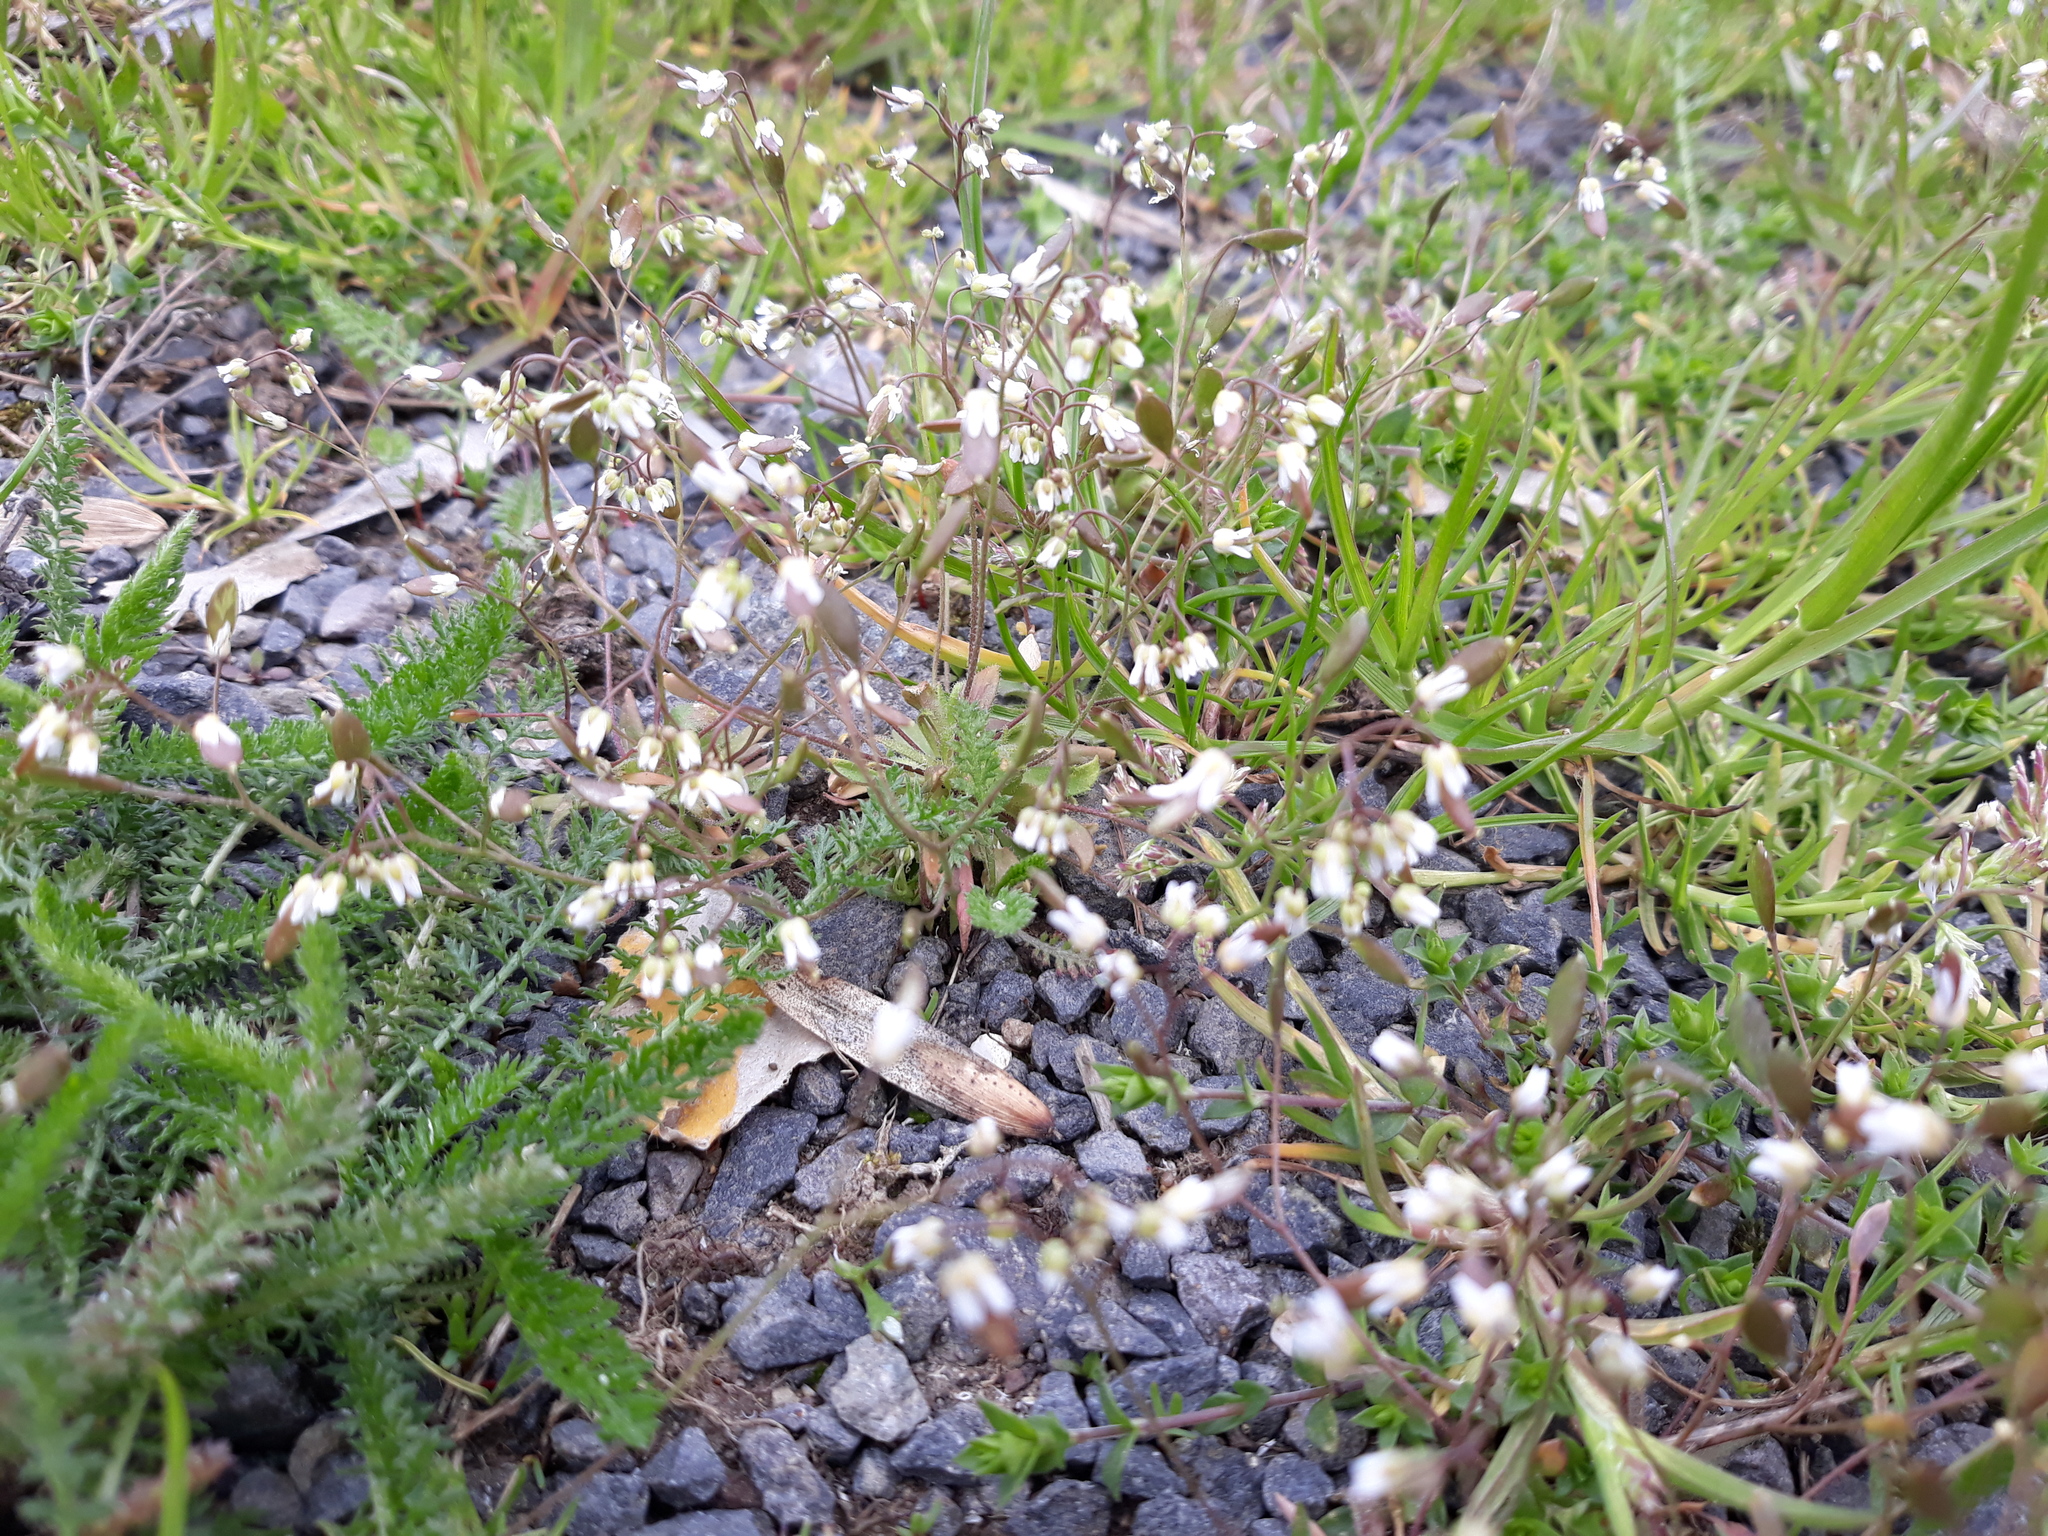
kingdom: Plantae
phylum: Tracheophyta
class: Magnoliopsida
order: Brassicales
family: Brassicaceae
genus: Draba
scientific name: Draba verna
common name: Spring draba
